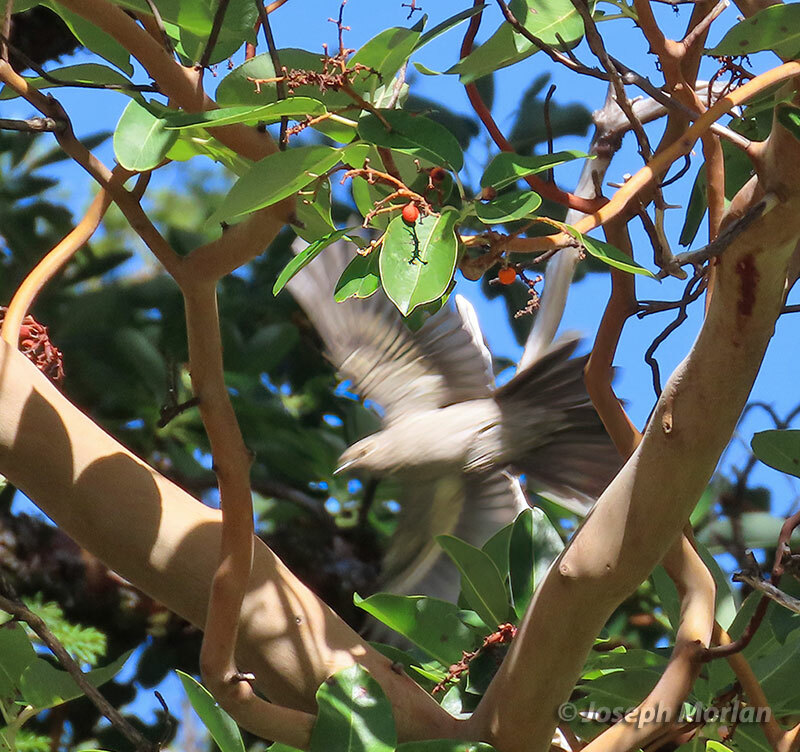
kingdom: Animalia
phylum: Chordata
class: Aves
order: Passeriformes
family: Turdidae
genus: Myadestes
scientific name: Myadestes townsendi
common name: Townsend's solitaire
